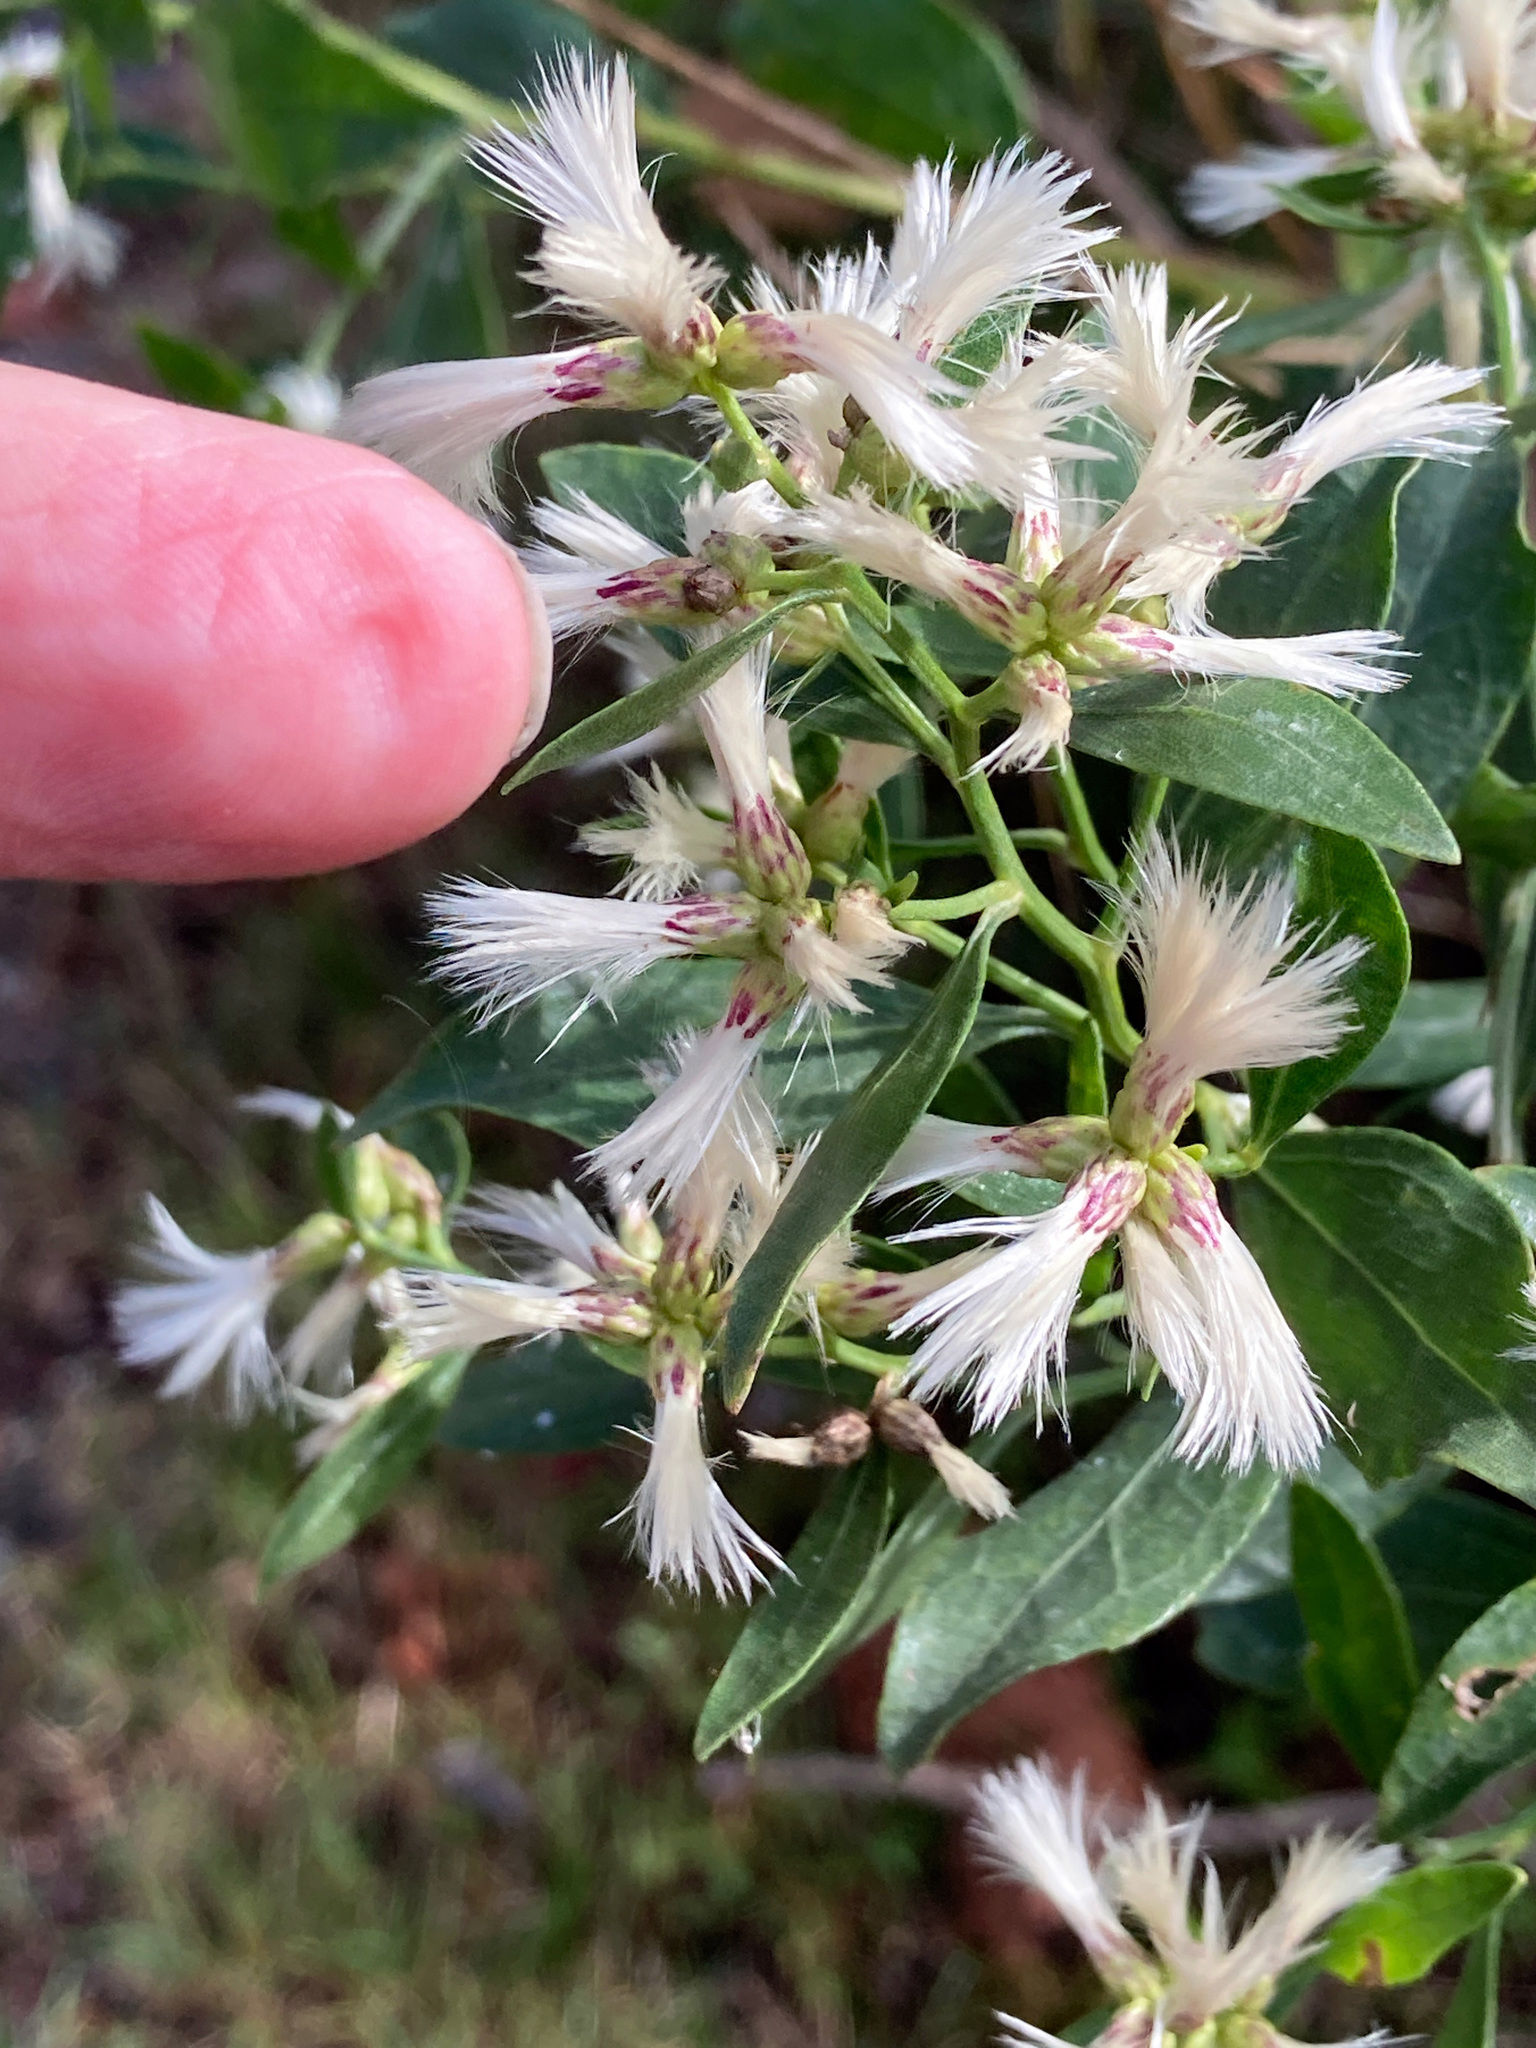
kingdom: Plantae
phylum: Tracheophyta
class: Magnoliopsida
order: Asterales
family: Asteraceae
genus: Baccharis
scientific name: Baccharis halimifolia
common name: Eastern baccharis
